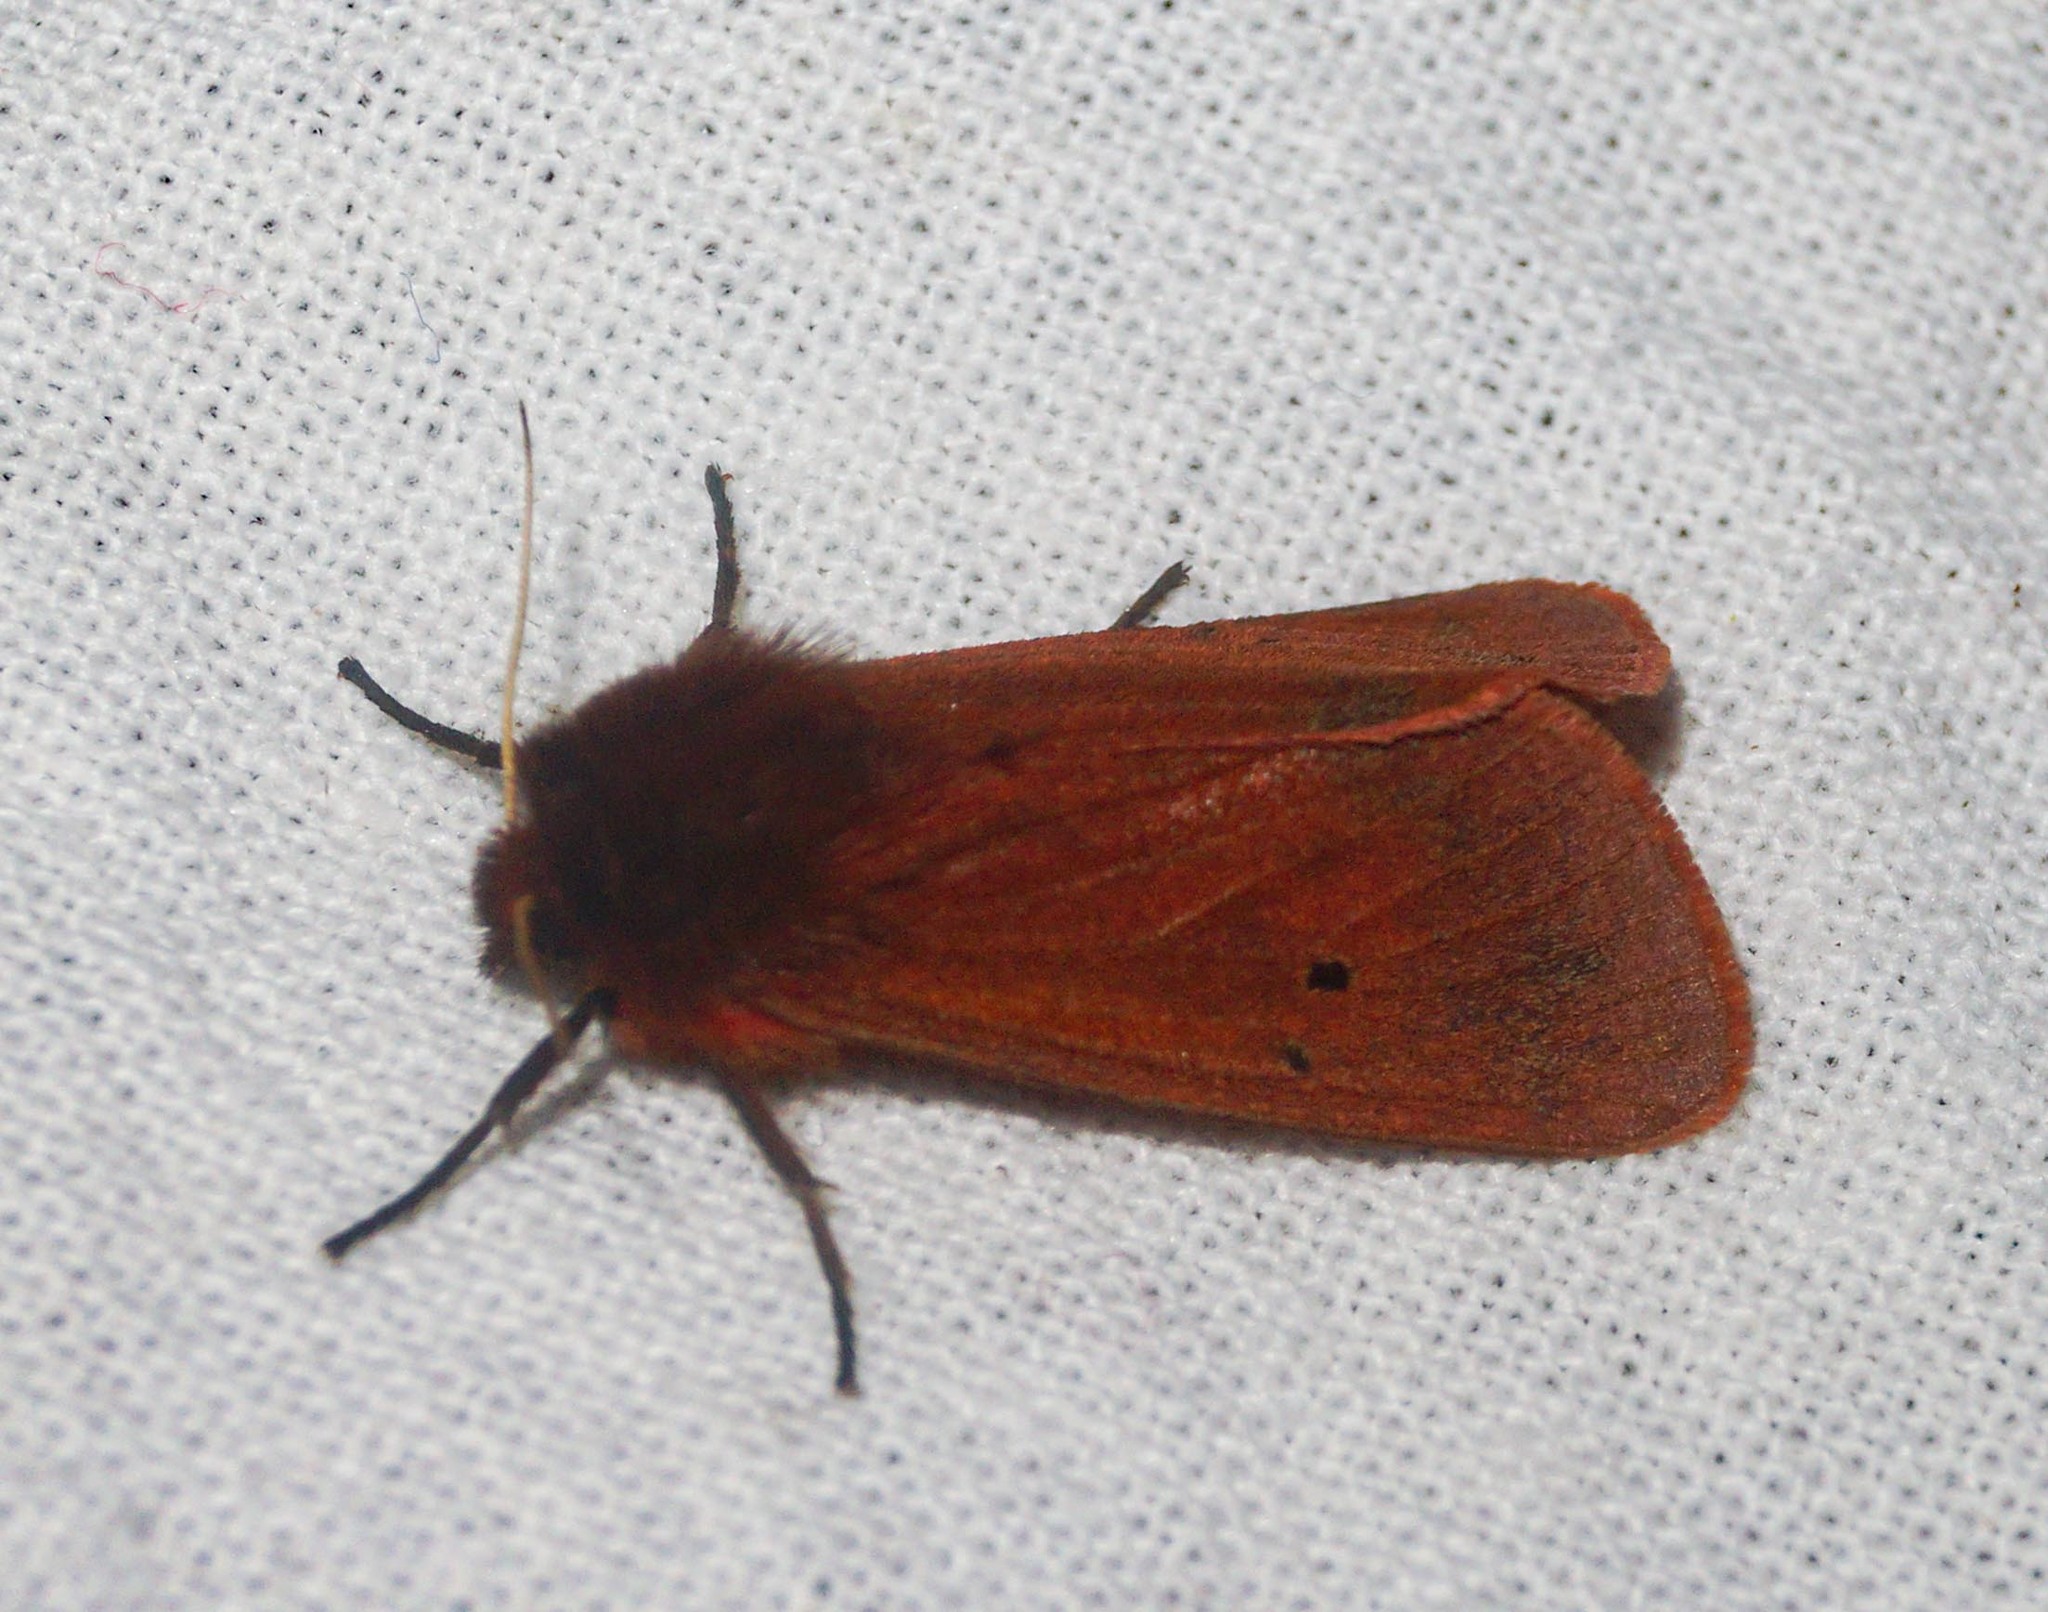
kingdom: Animalia
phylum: Arthropoda
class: Insecta
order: Lepidoptera
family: Erebidae
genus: Phragmatobia
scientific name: Phragmatobia fuliginosa
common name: Ruby tiger
